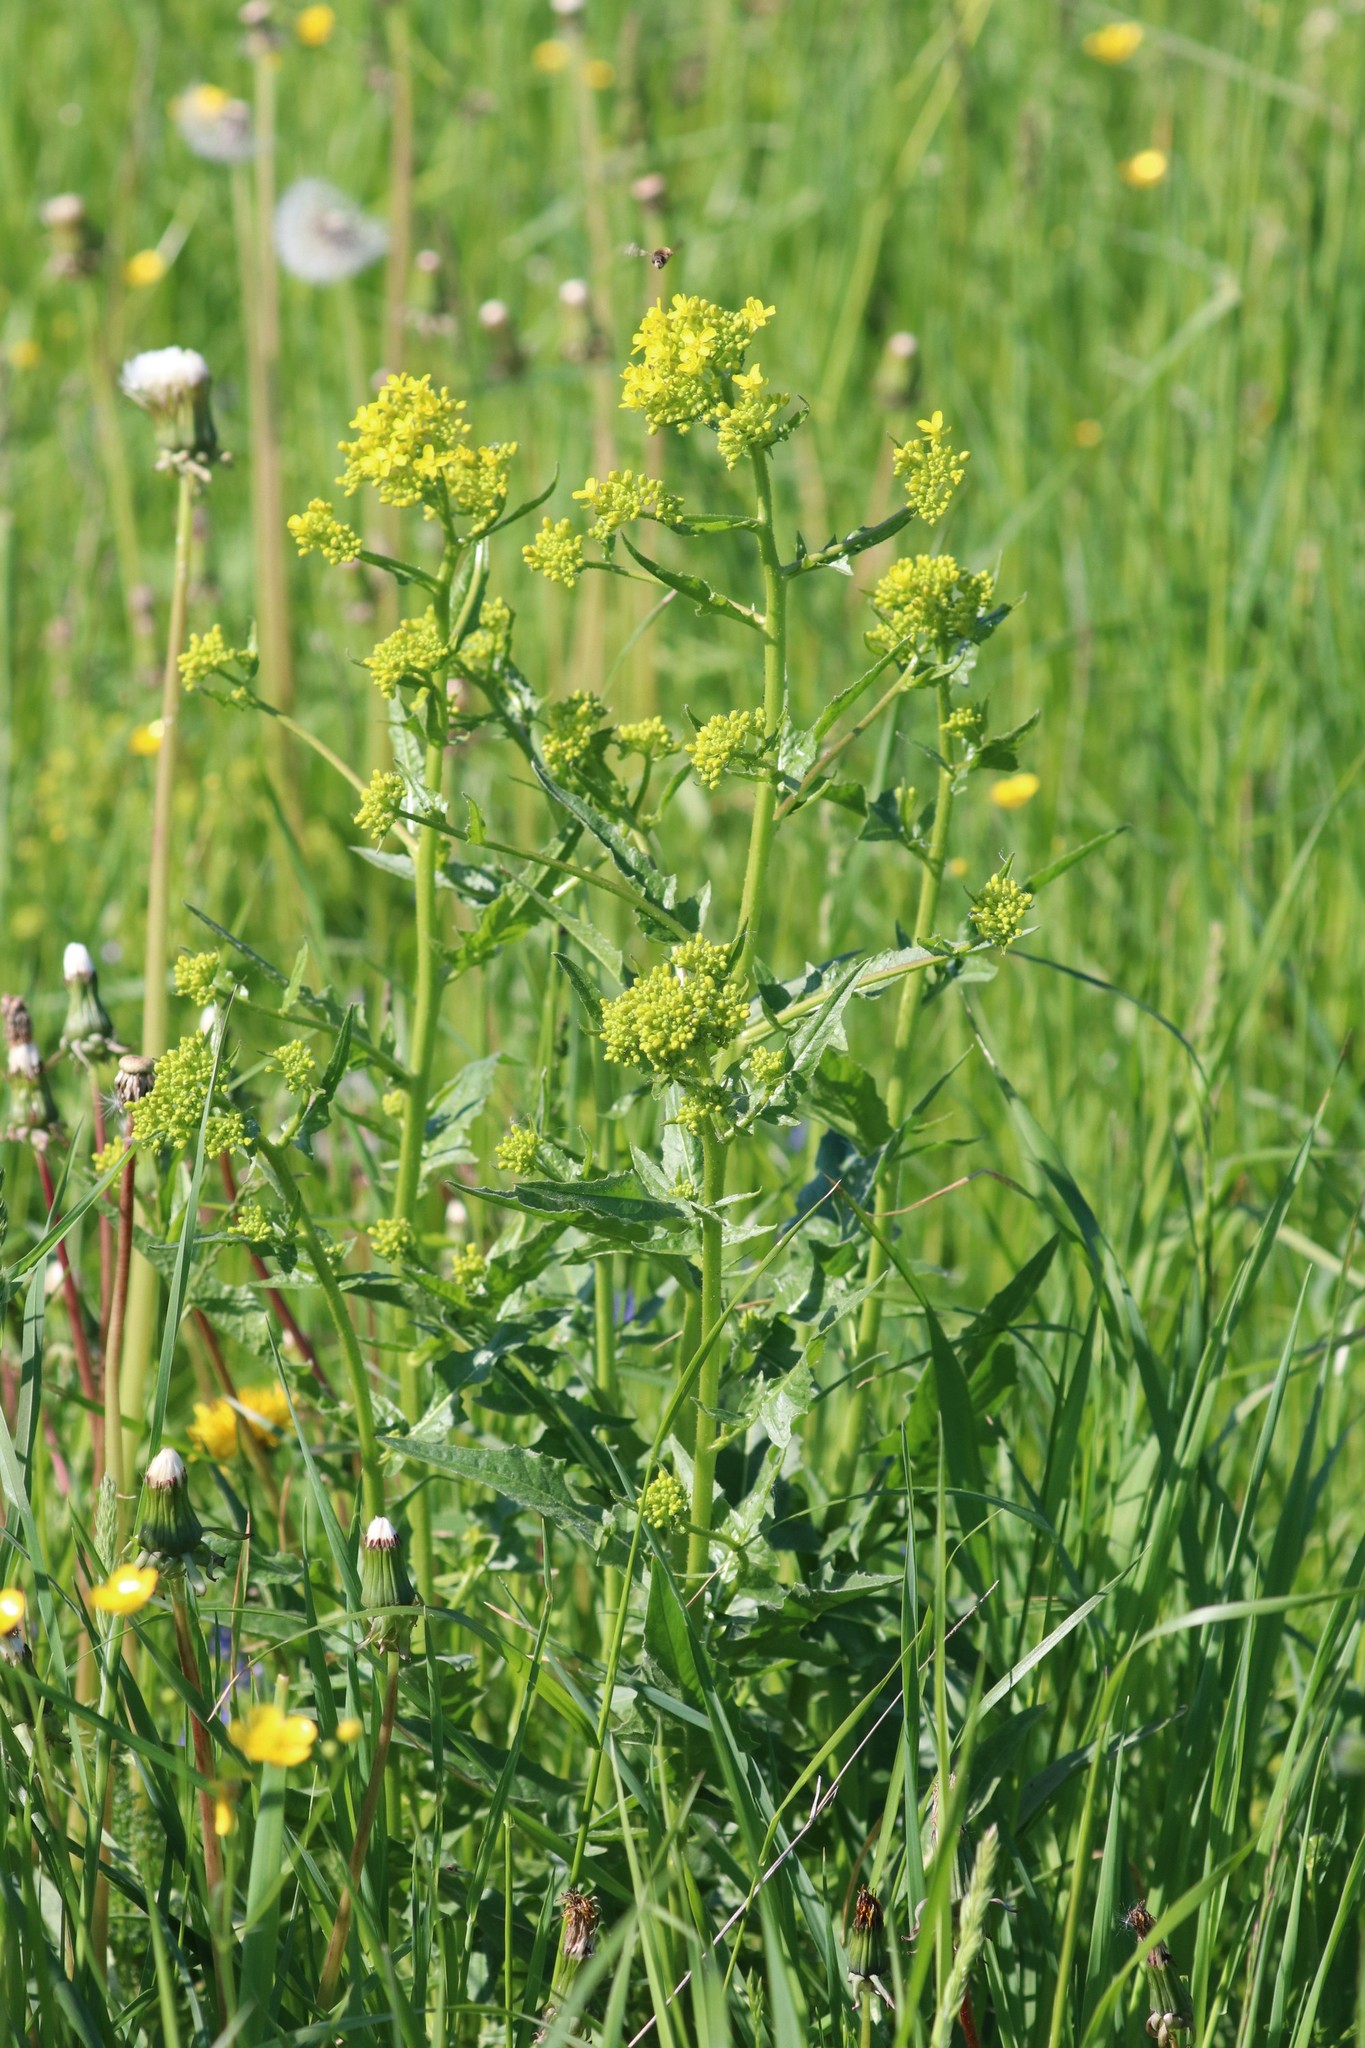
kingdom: Plantae
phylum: Tracheophyta
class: Magnoliopsida
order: Brassicales
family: Brassicaceae
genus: Bunias
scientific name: Bunias orientalis
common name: Warty-cabbage
